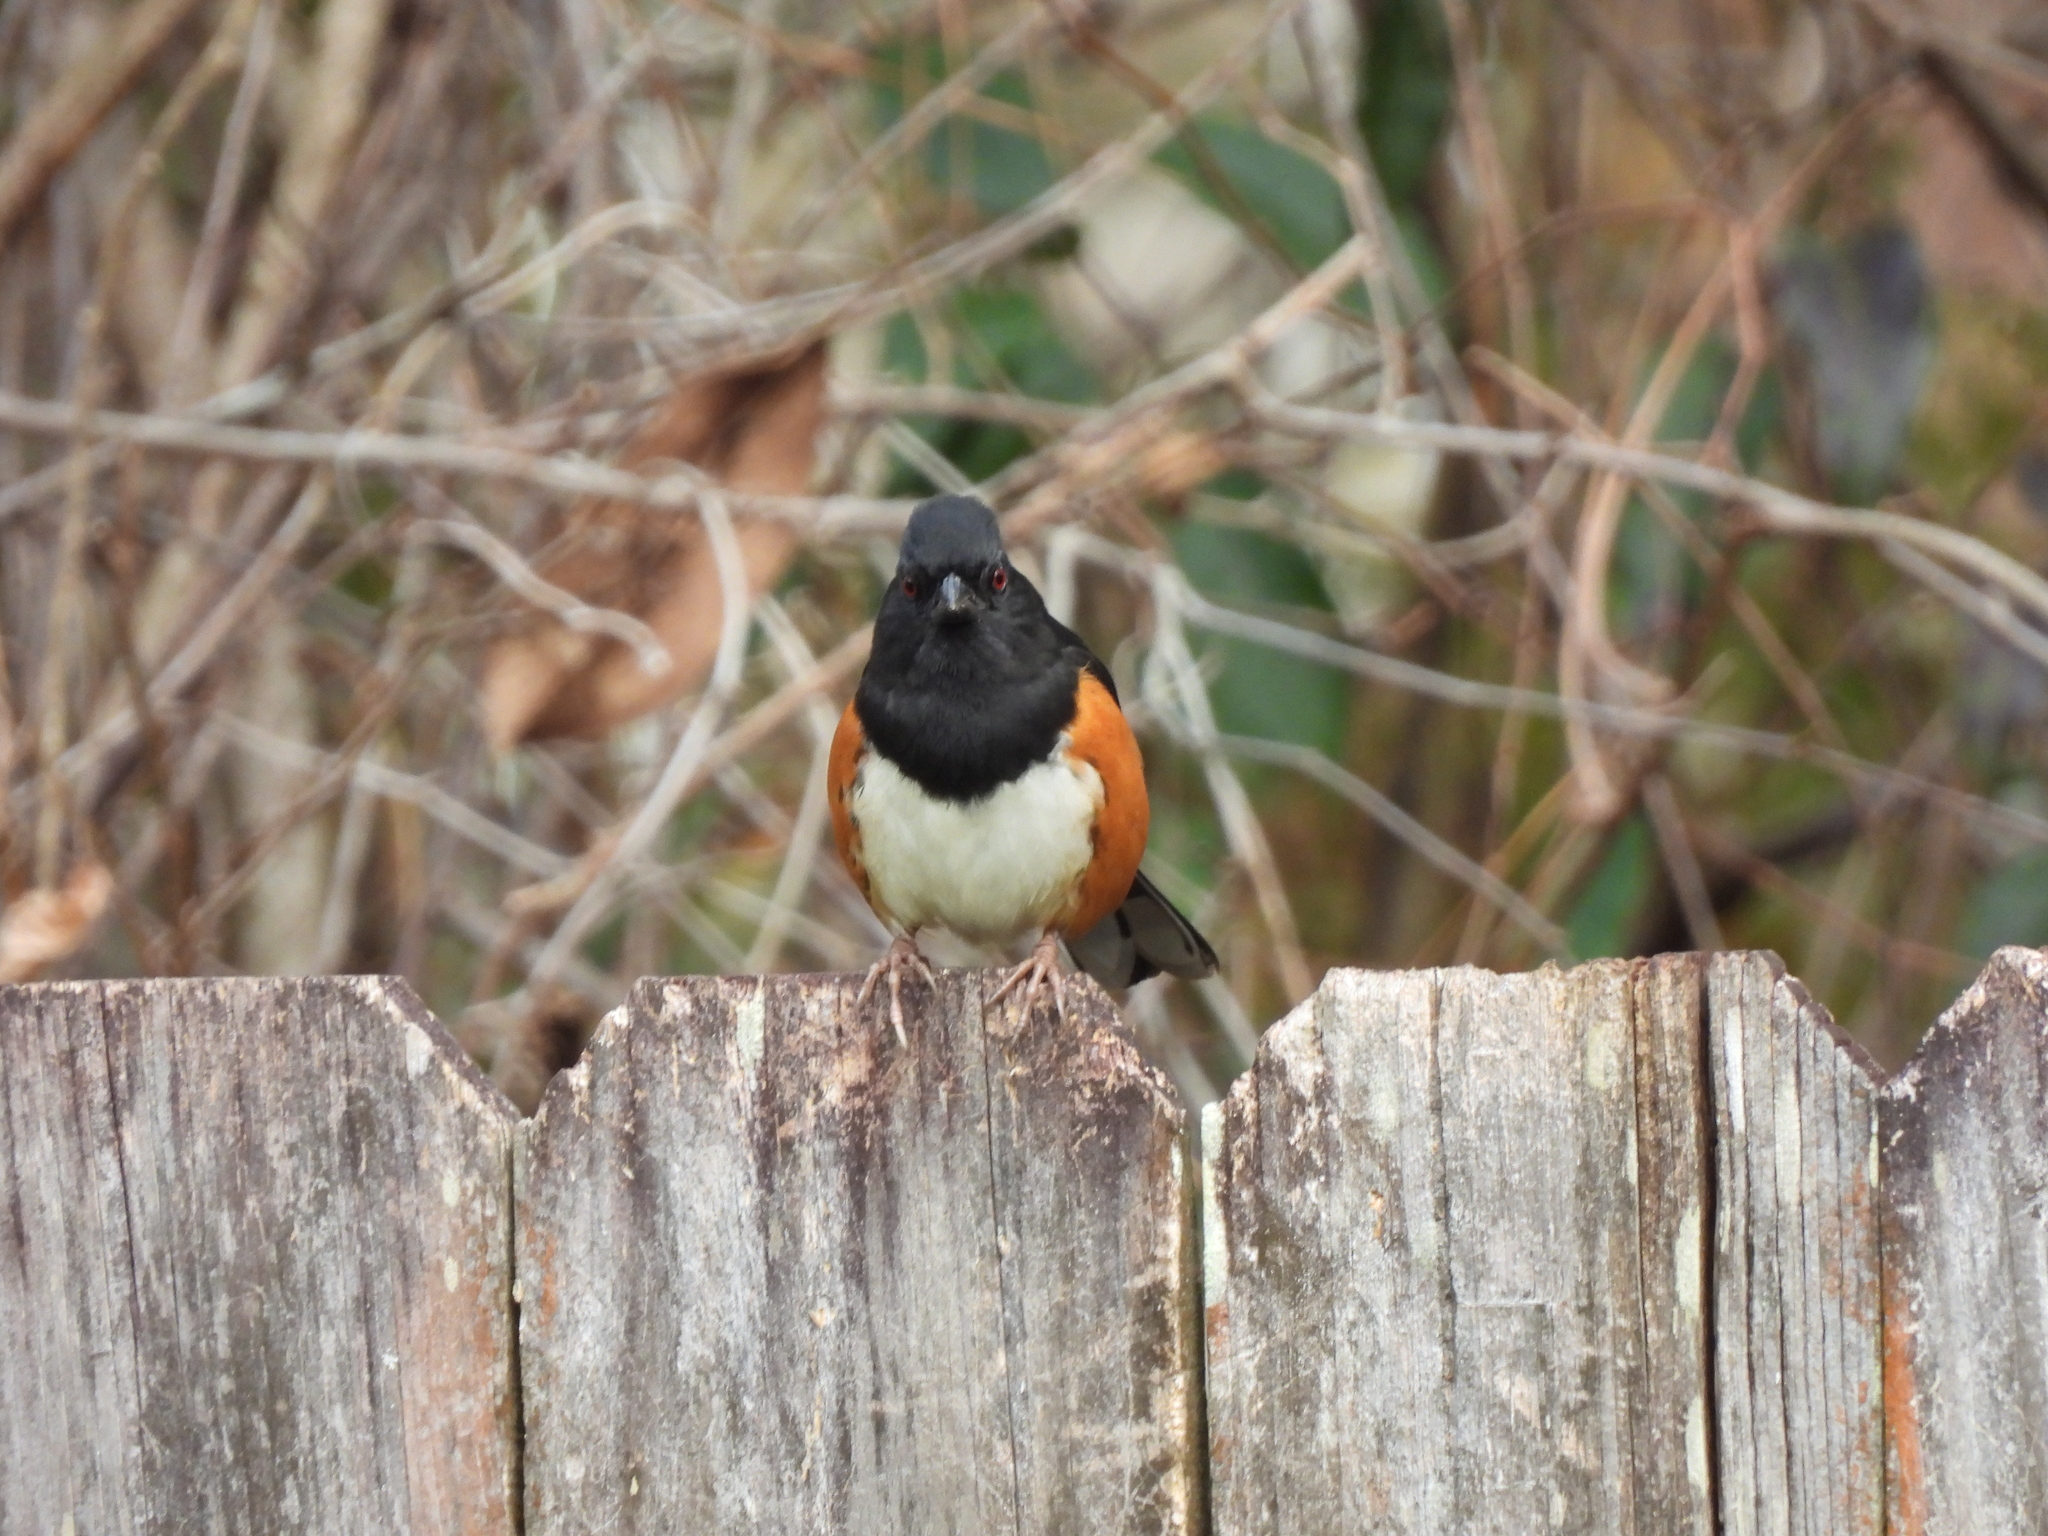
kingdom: Animalia
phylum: Chordata
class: Aves
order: Passeriformes
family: Passerellidae
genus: Pipilo
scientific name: Pipilo erythrophthalmus
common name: Eastern towhee
